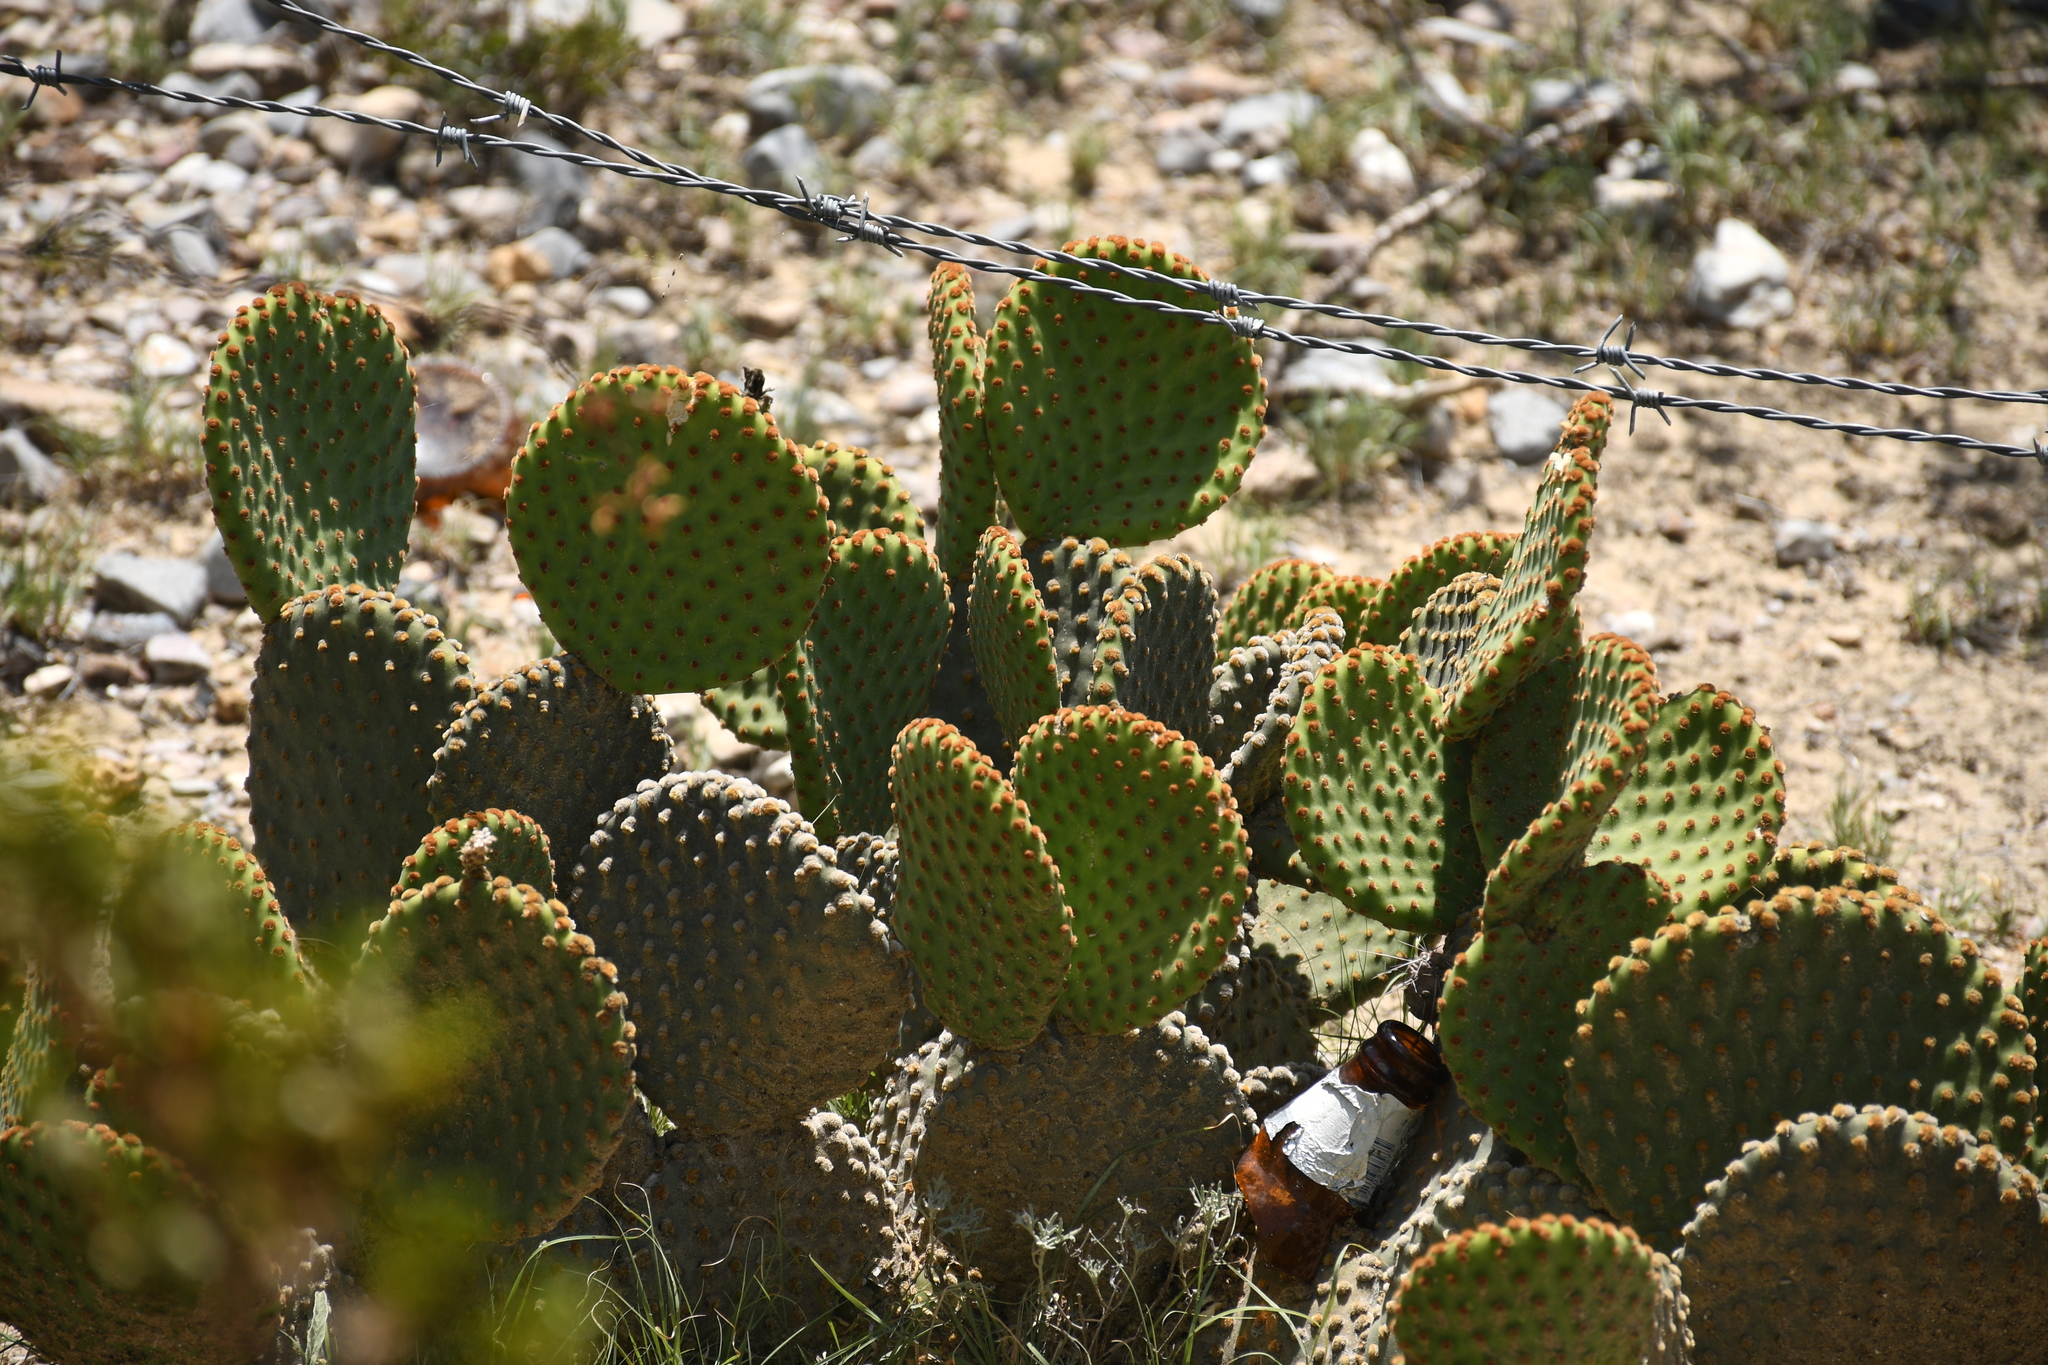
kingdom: Plantae
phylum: Tracheophyta
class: Magnoliopsida
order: Caryophyllales
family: Cactaceae
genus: Opuntia
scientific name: Opuntia microdasys
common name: Angel's-wings
